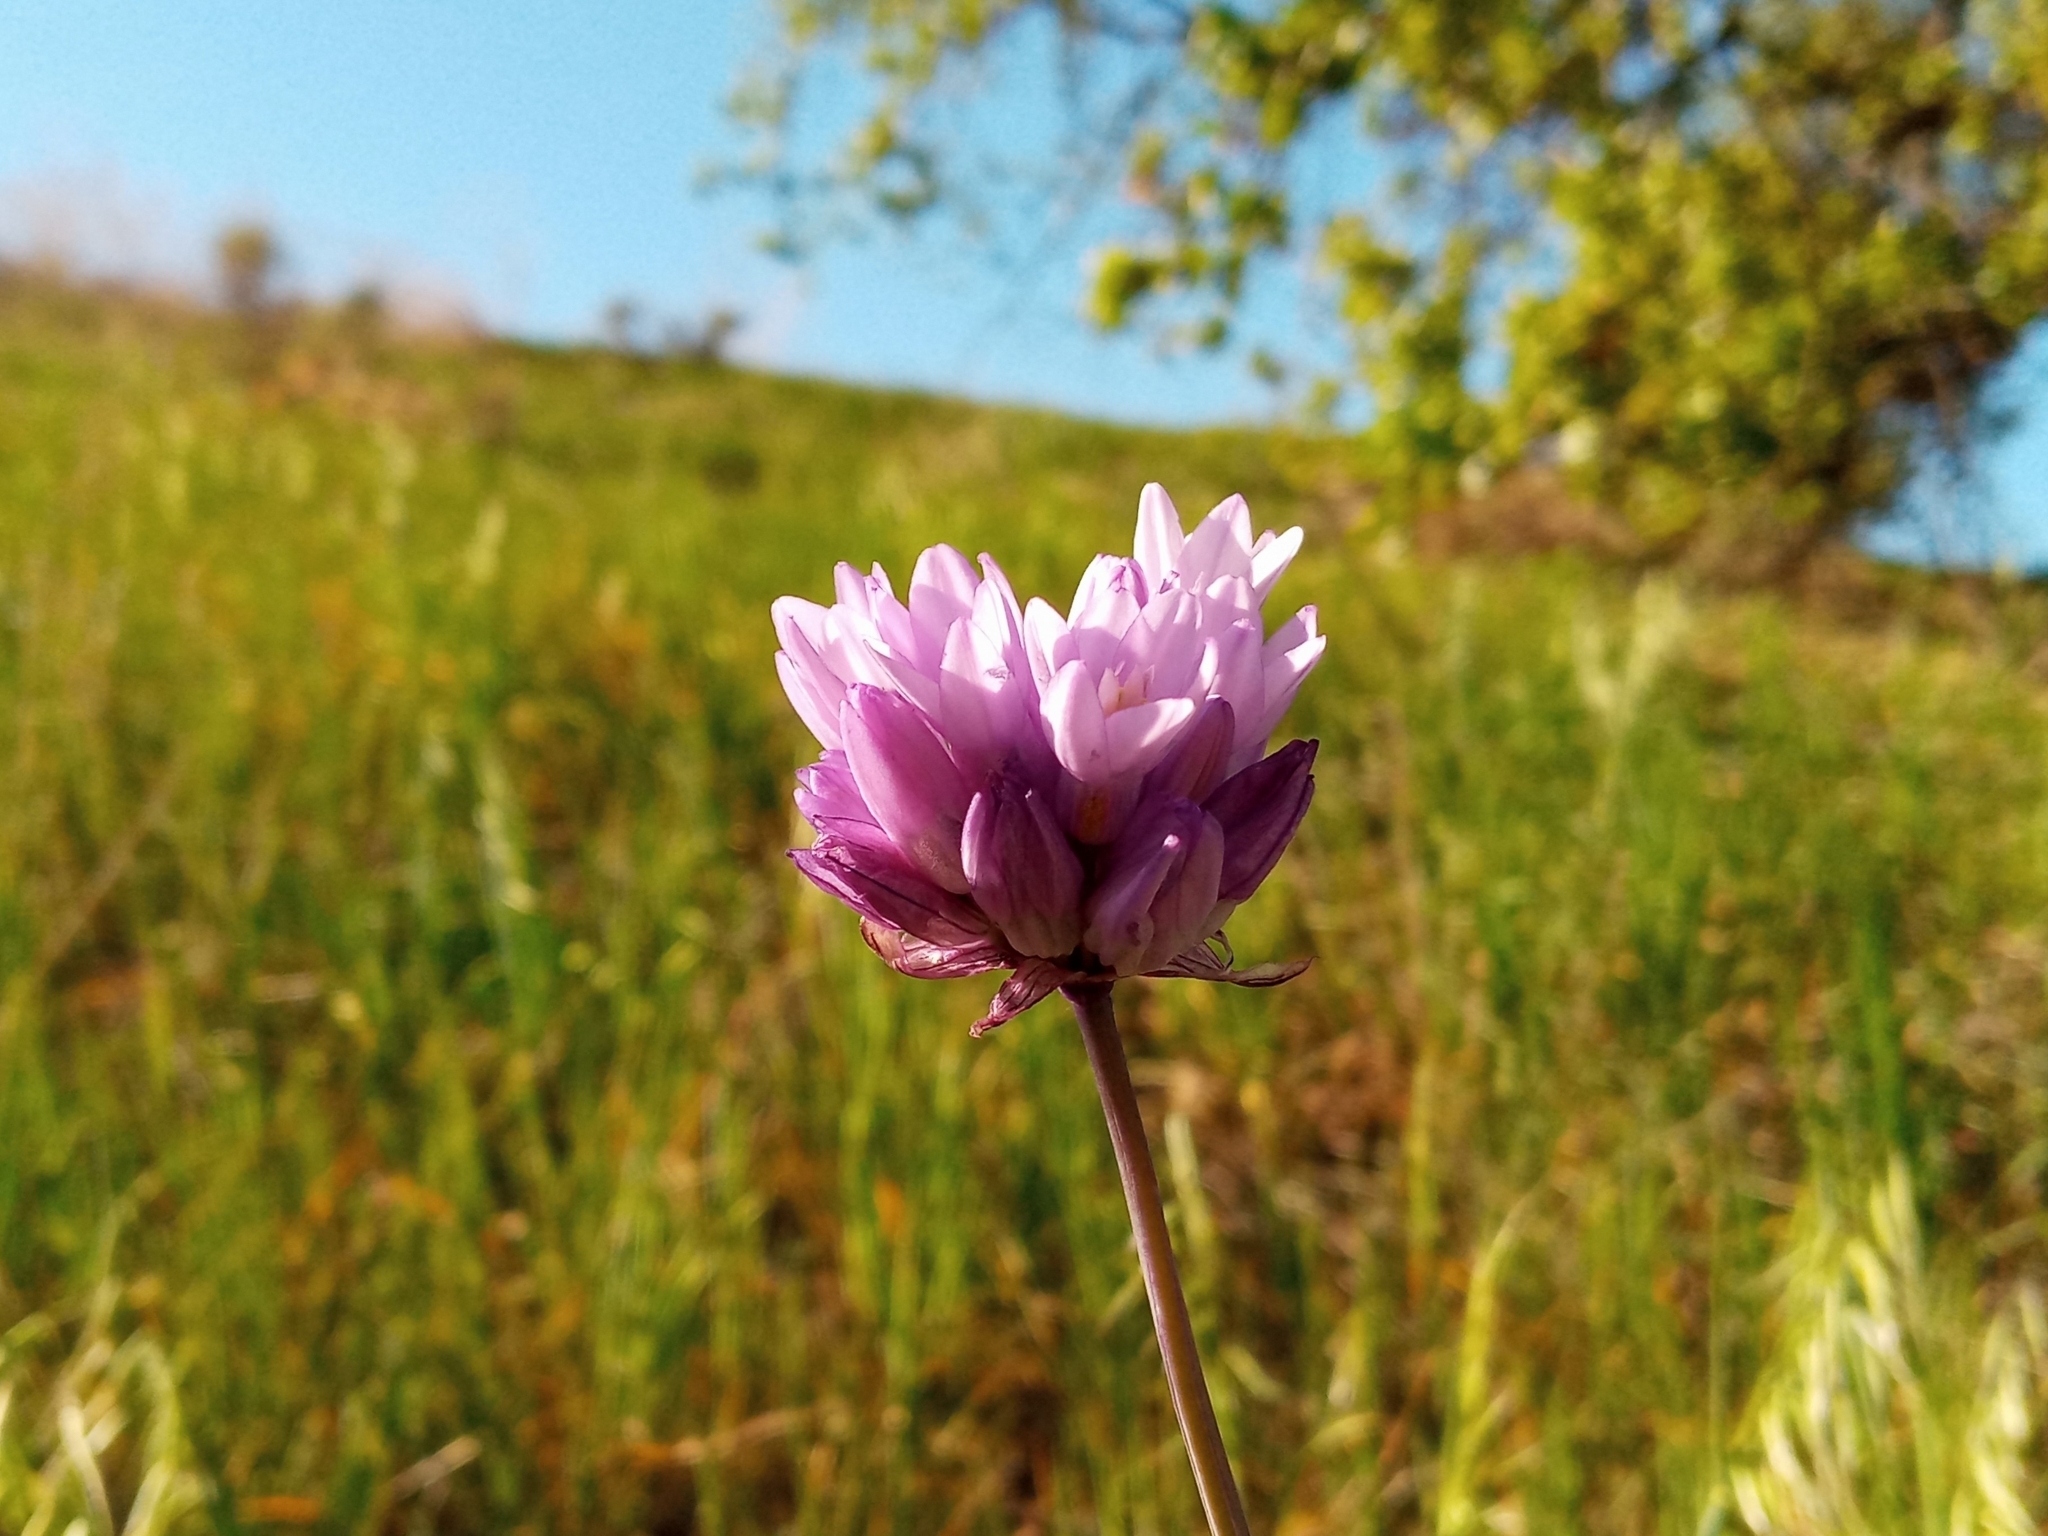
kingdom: Plantae
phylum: Tracheophyta
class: Liliopsida
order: Asparagales
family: Asparagaceae
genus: Dipterostemon
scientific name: Dipterostemon capitatus
